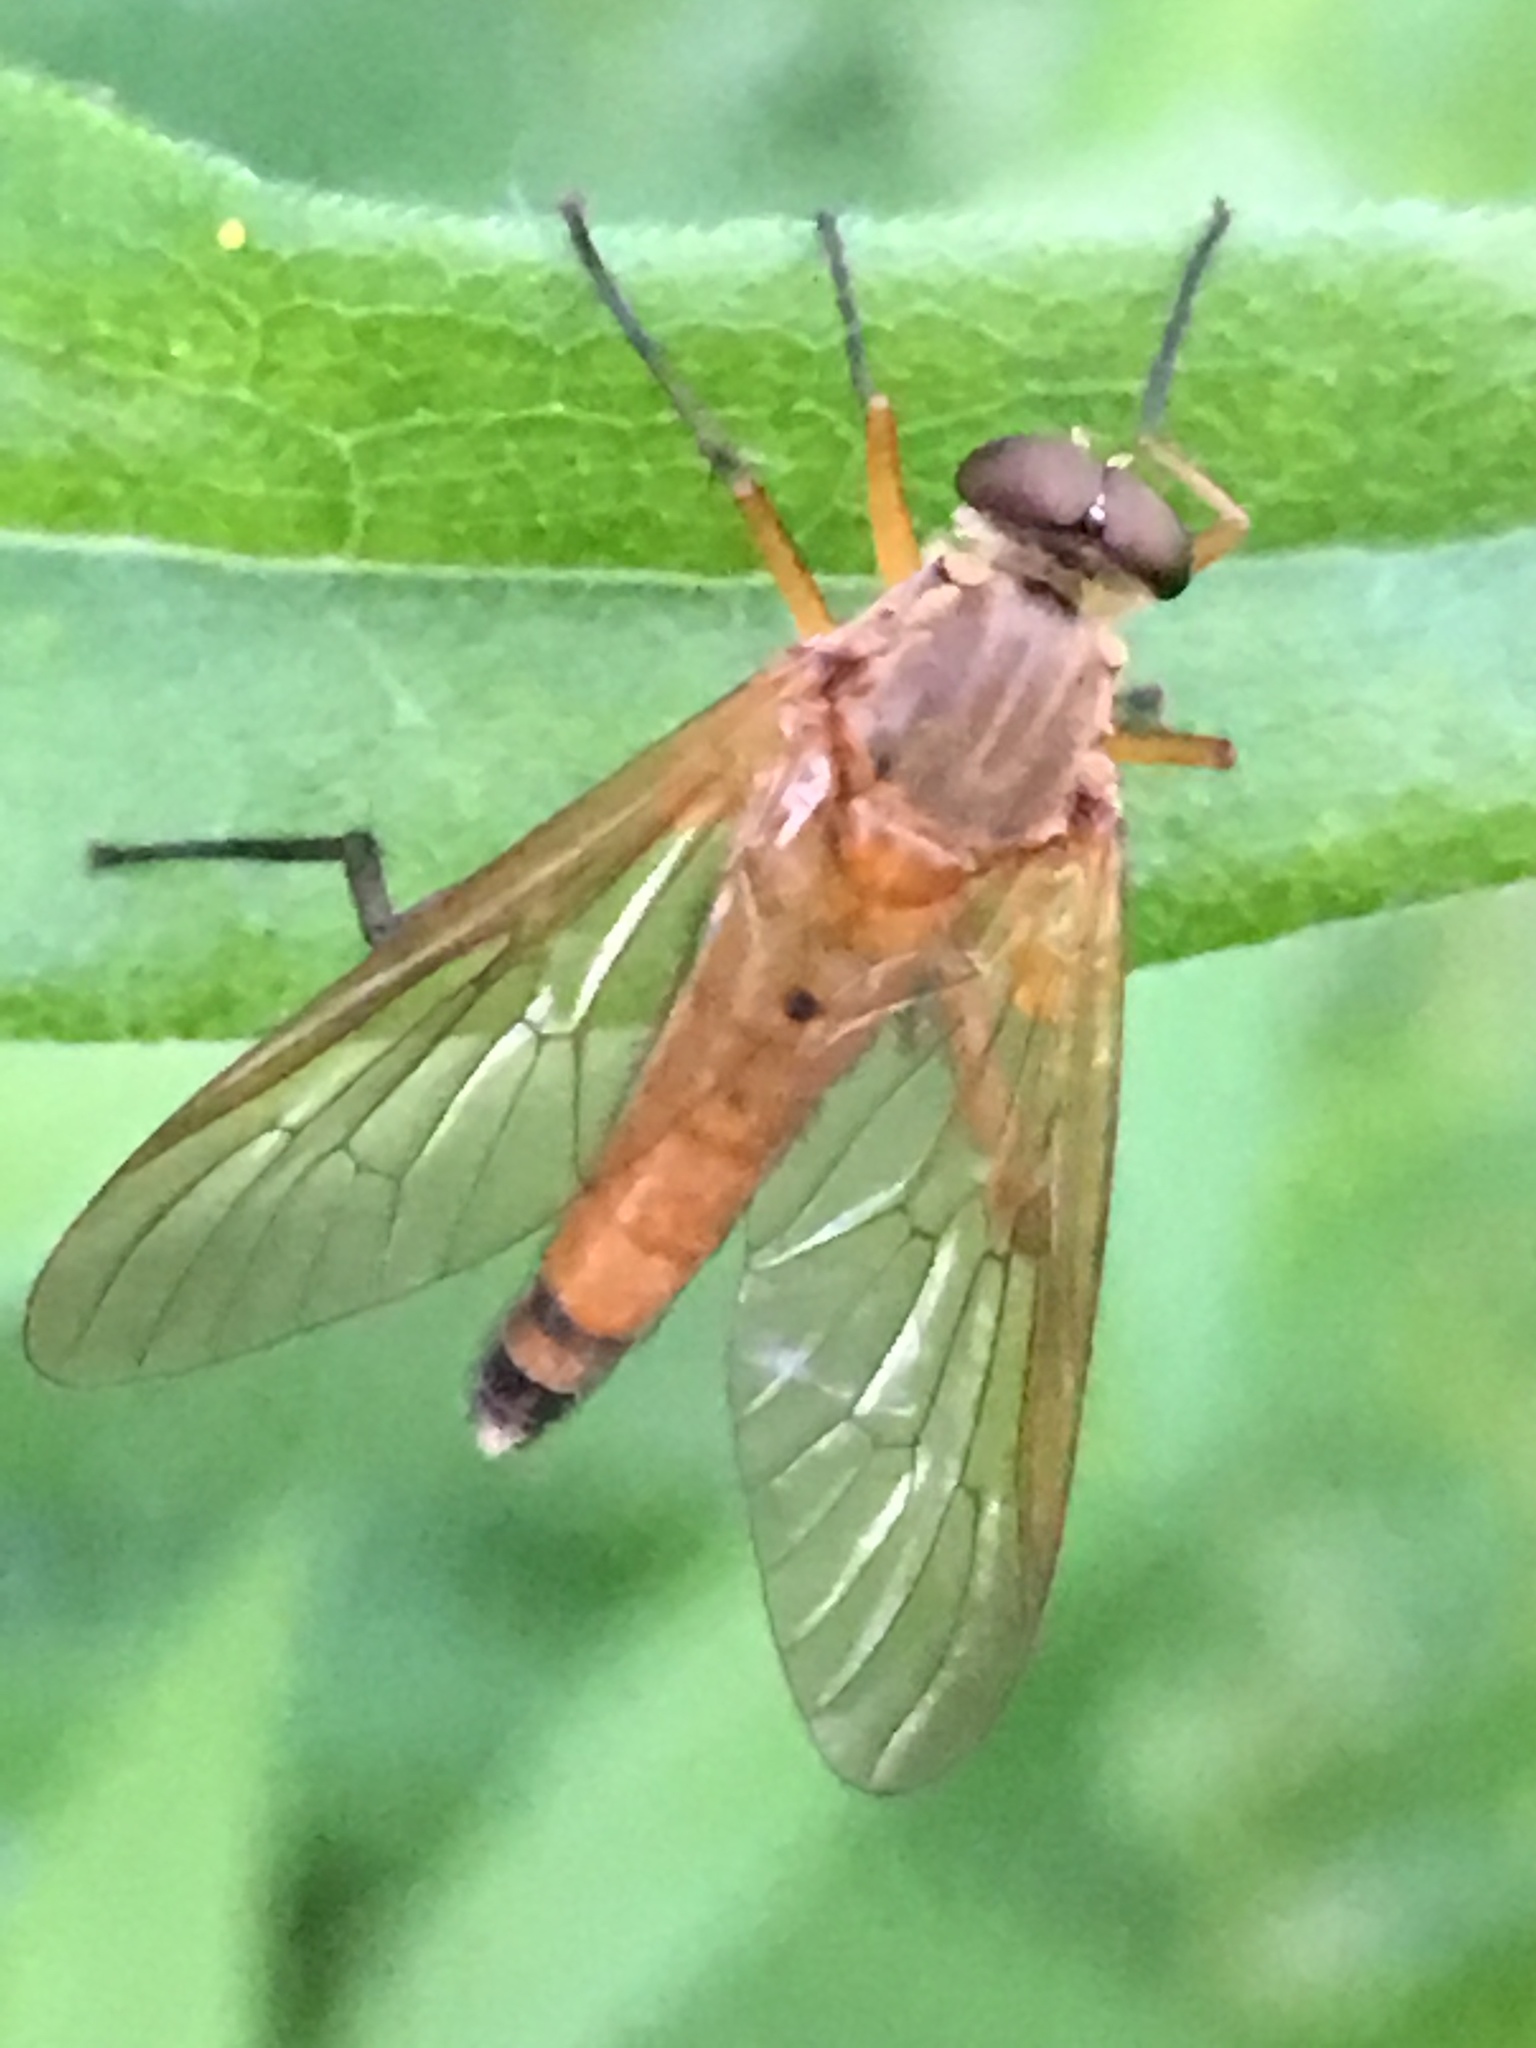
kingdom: Animalia
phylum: Arthropoda
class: Insecta
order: Diptera
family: Rhagionidae
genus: Rhagio
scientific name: Rhagio tringaria
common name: Marsh snipefly
